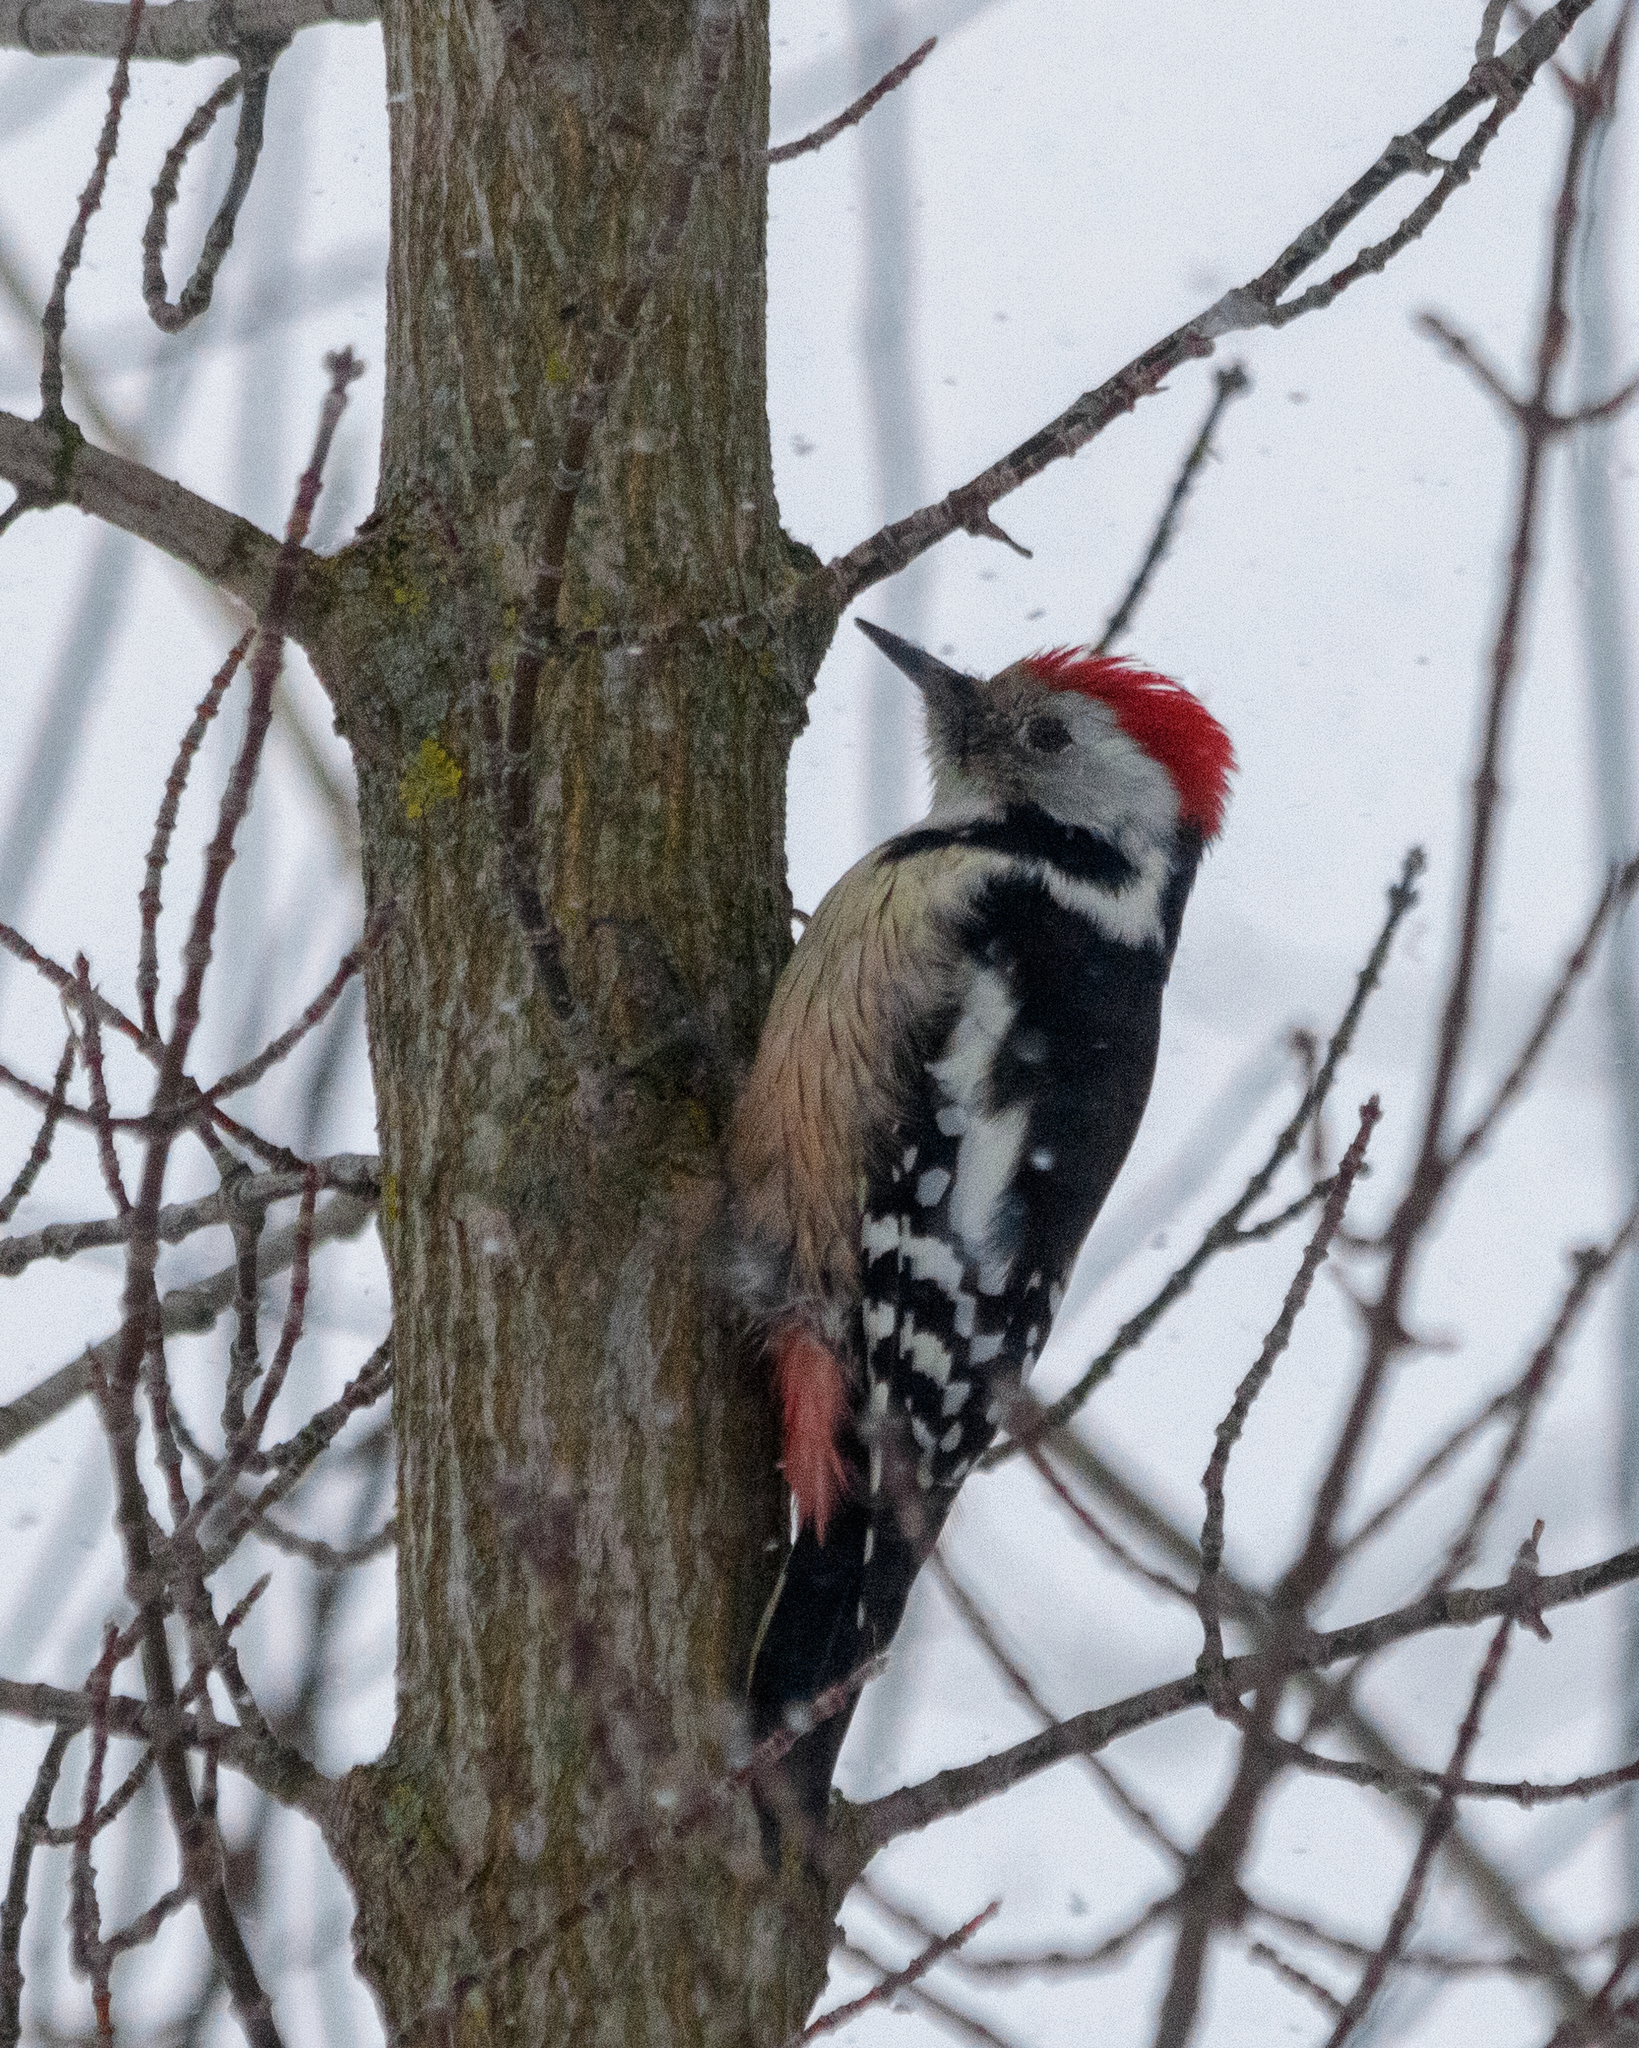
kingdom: Animalia
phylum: Chordata
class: Aves
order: Piciformes
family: Picidae
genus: Dendrocoptes
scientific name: Dendrocoptes medius
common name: Middle spotted woodpecker
